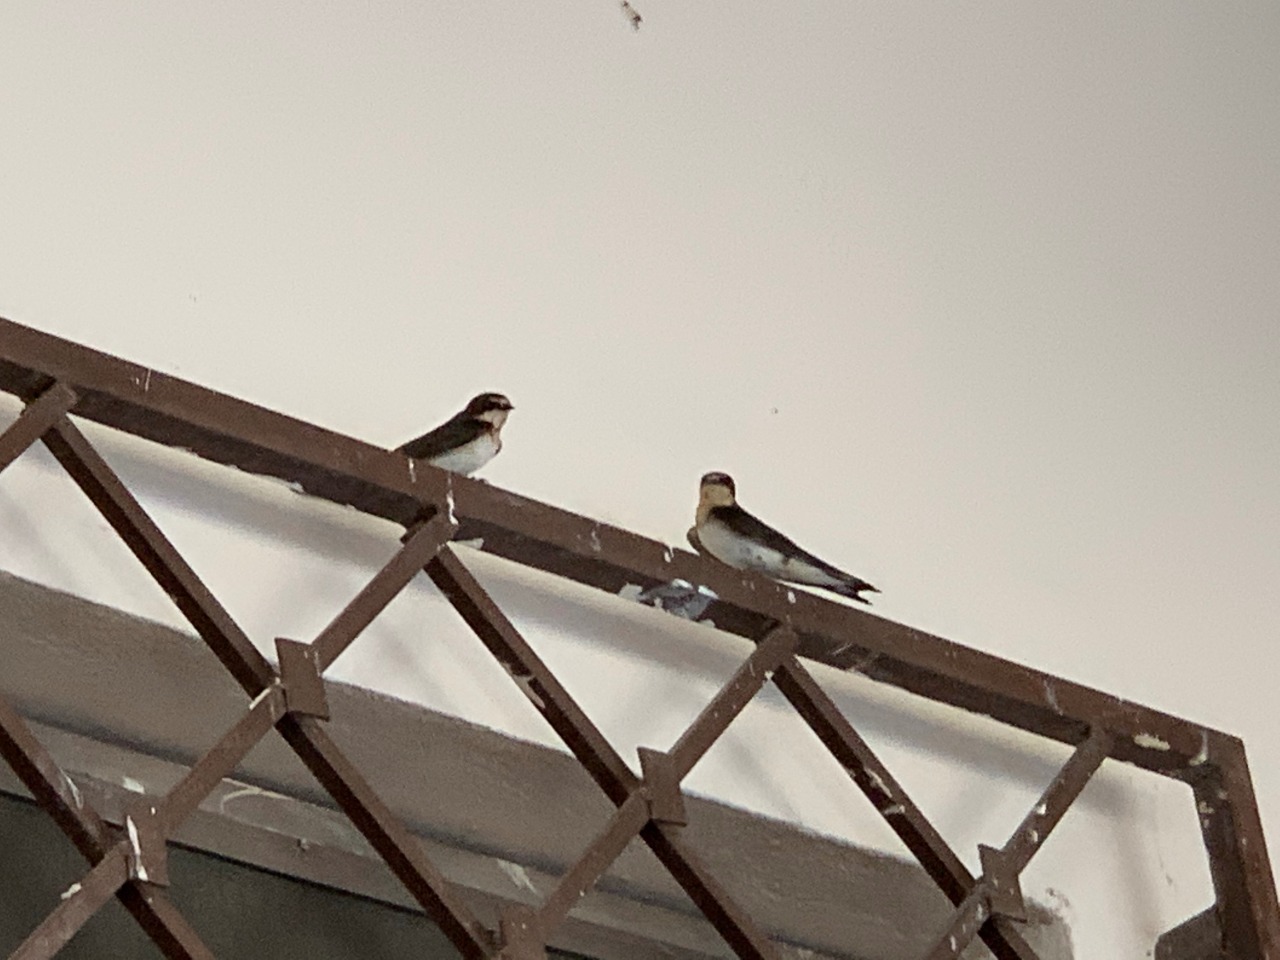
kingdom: Animalia
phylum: Chordata
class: Aves
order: Passeriformes
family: Hirundinidae
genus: Hirundo
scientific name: Hirundo rustica
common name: Barn swallow
